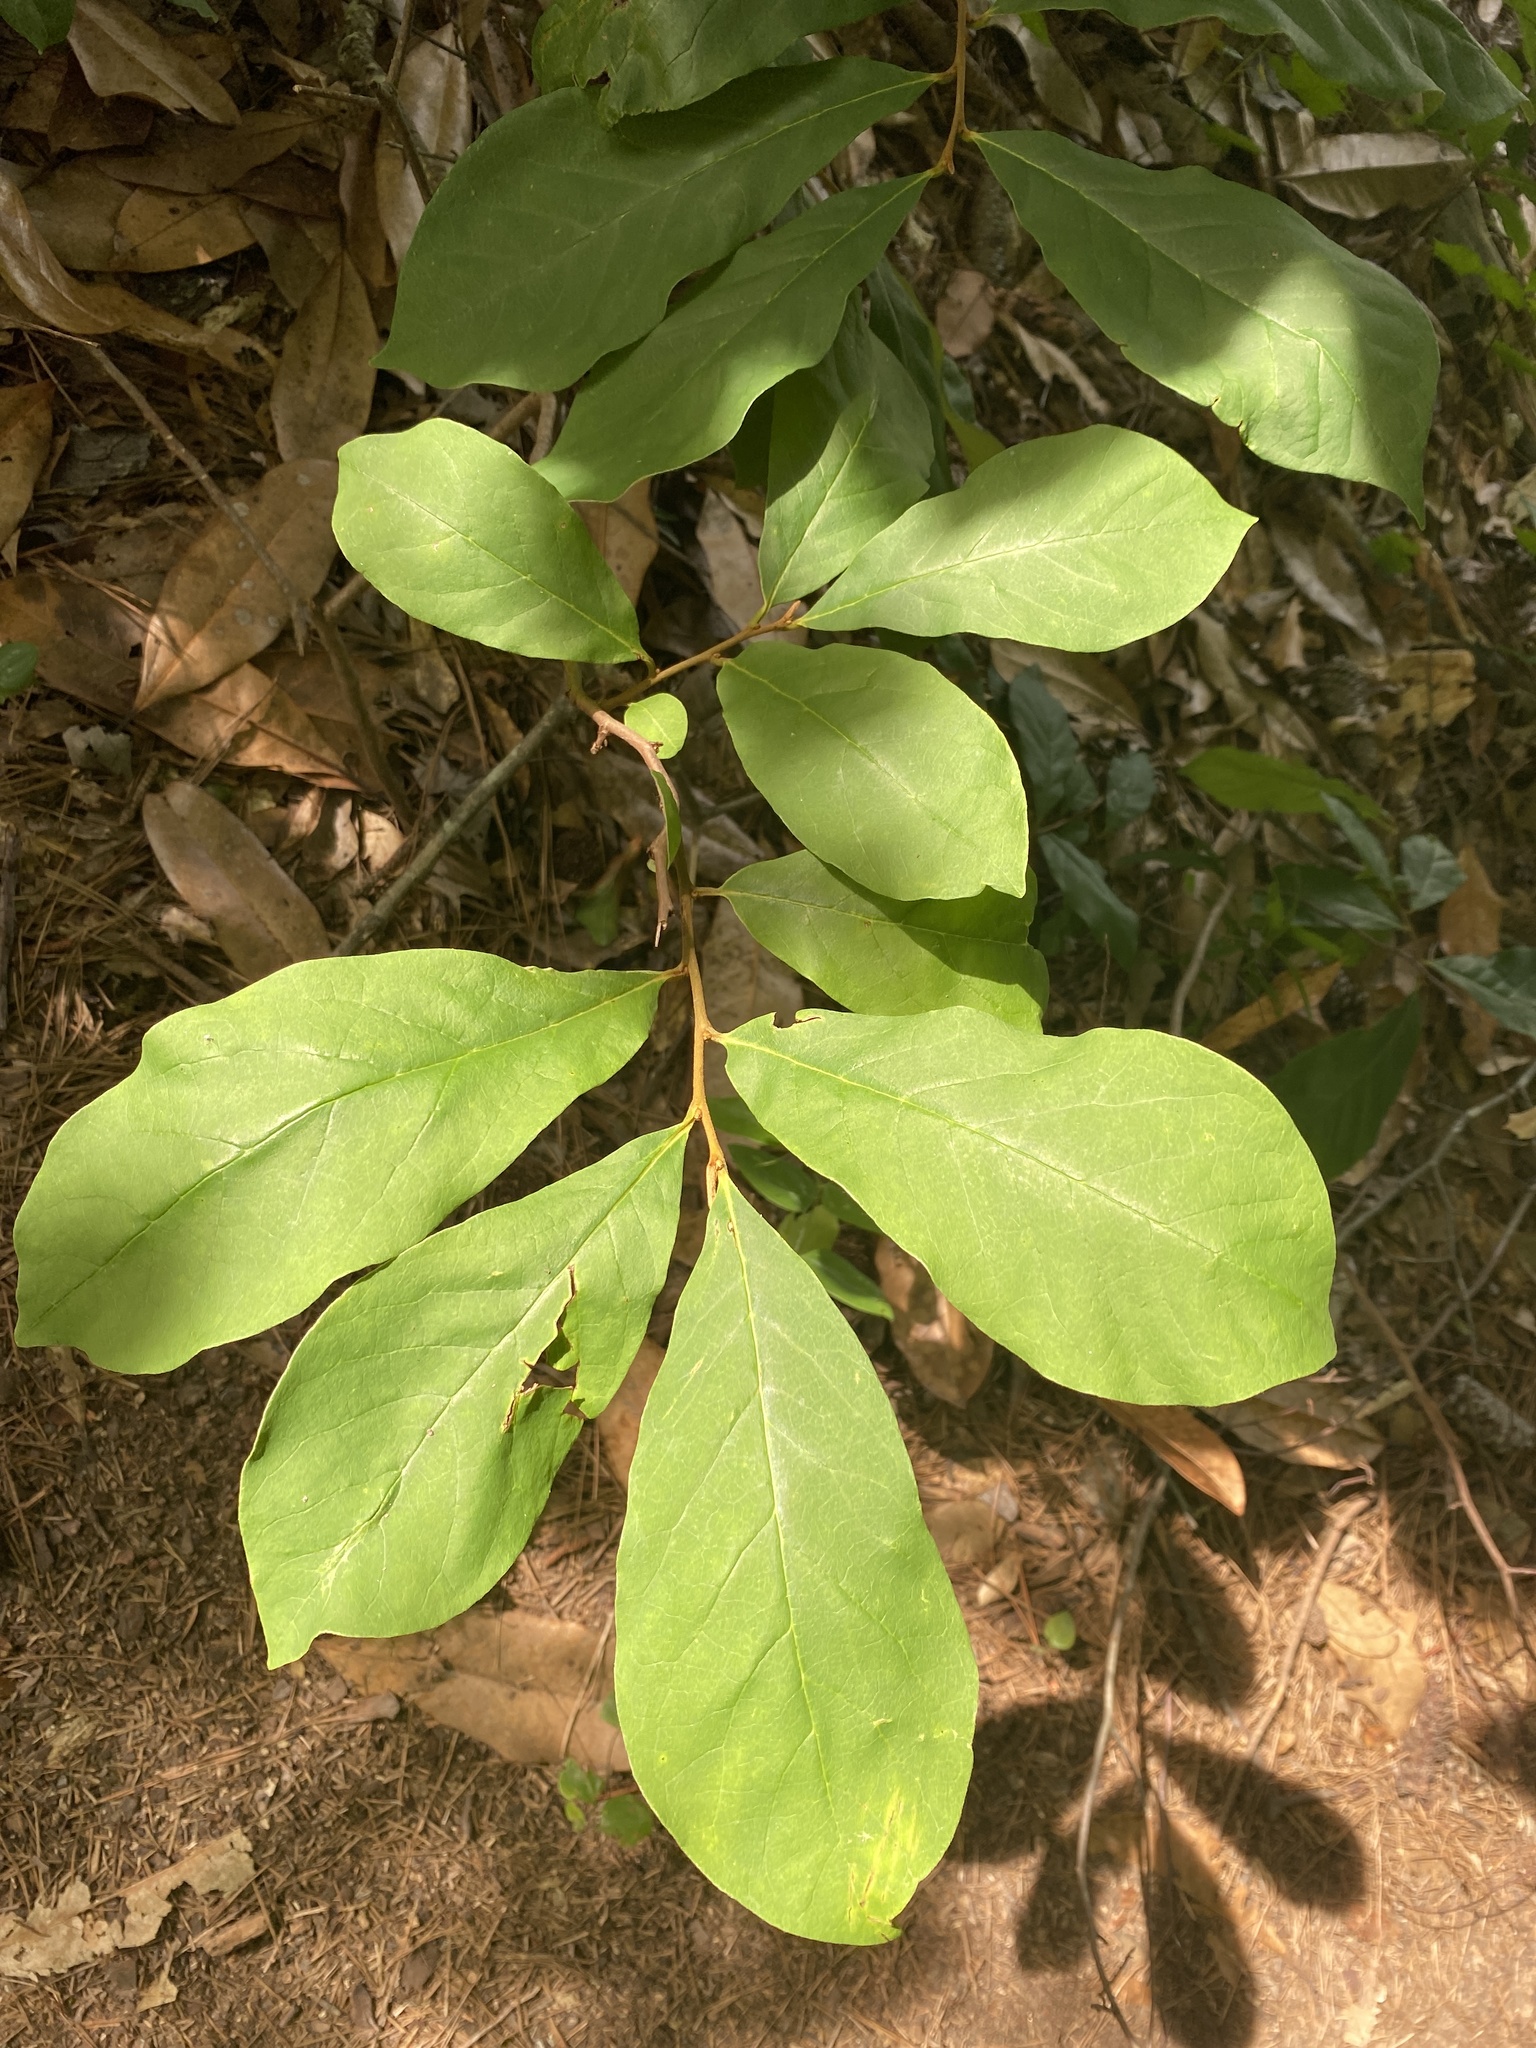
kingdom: Plantae
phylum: Tracheophyta
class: Magnoliopsida
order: Magnoliales
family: Annonaceae
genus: Asimina
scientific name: Asimina parviflora
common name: Dwarf pawpaw
